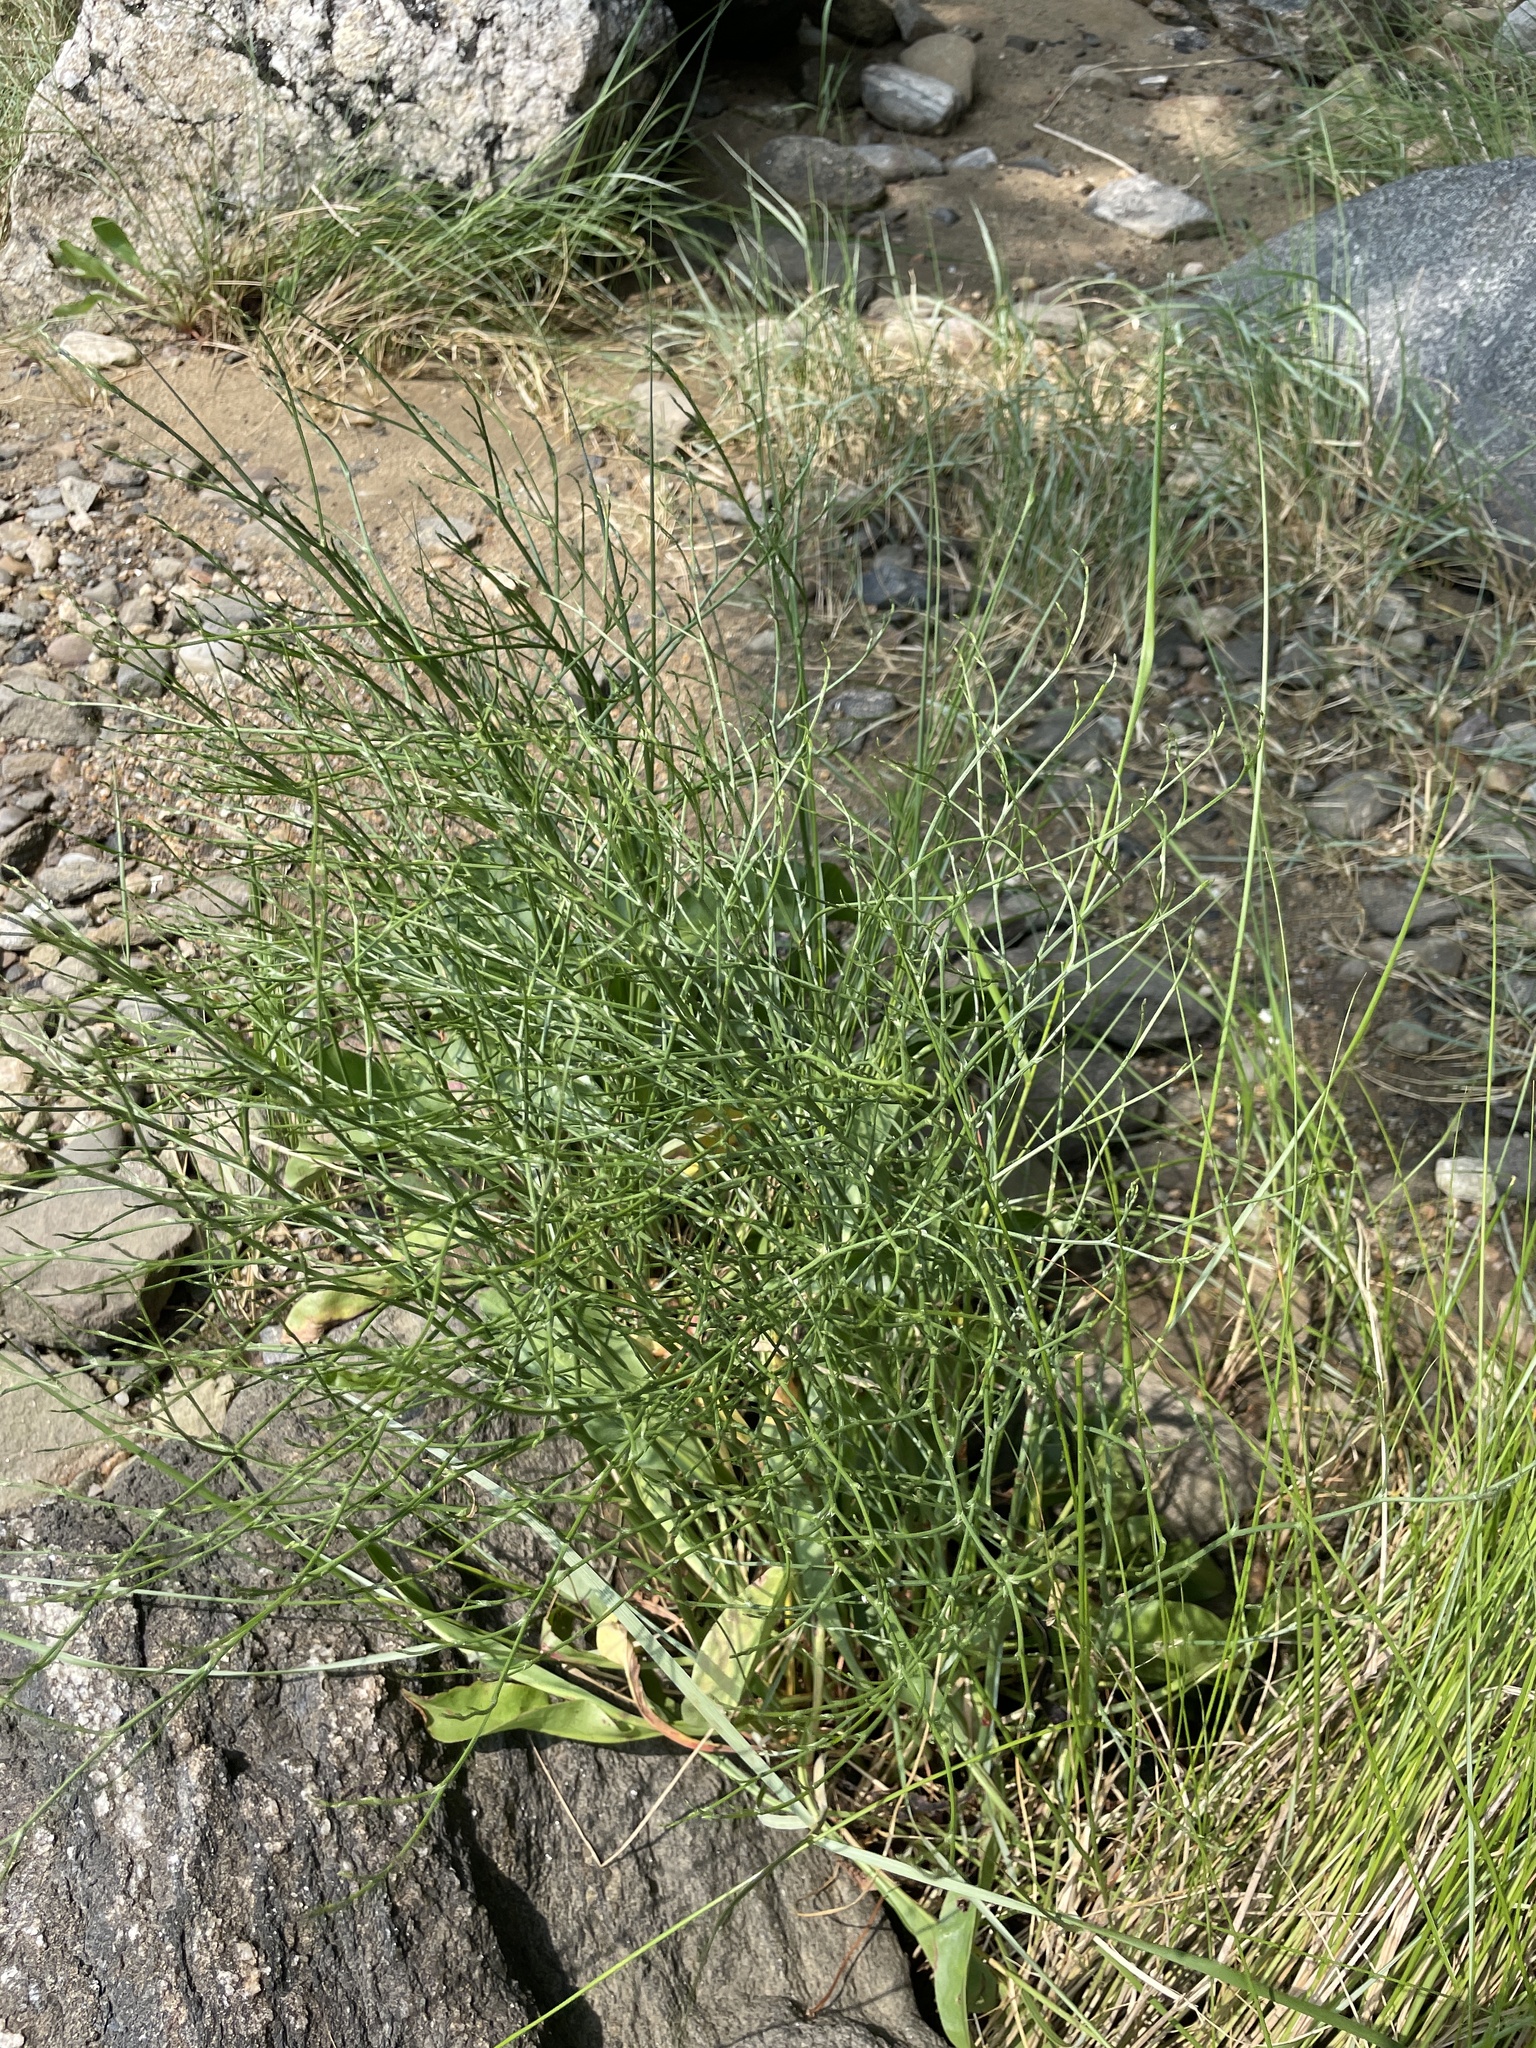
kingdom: Plantae
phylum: Tracheophyta
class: Magnoliopsida
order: Caryophyllales
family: Plumbaginaceae
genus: Limonium
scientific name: Limonium carolinianum
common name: Carolina sea lavender
